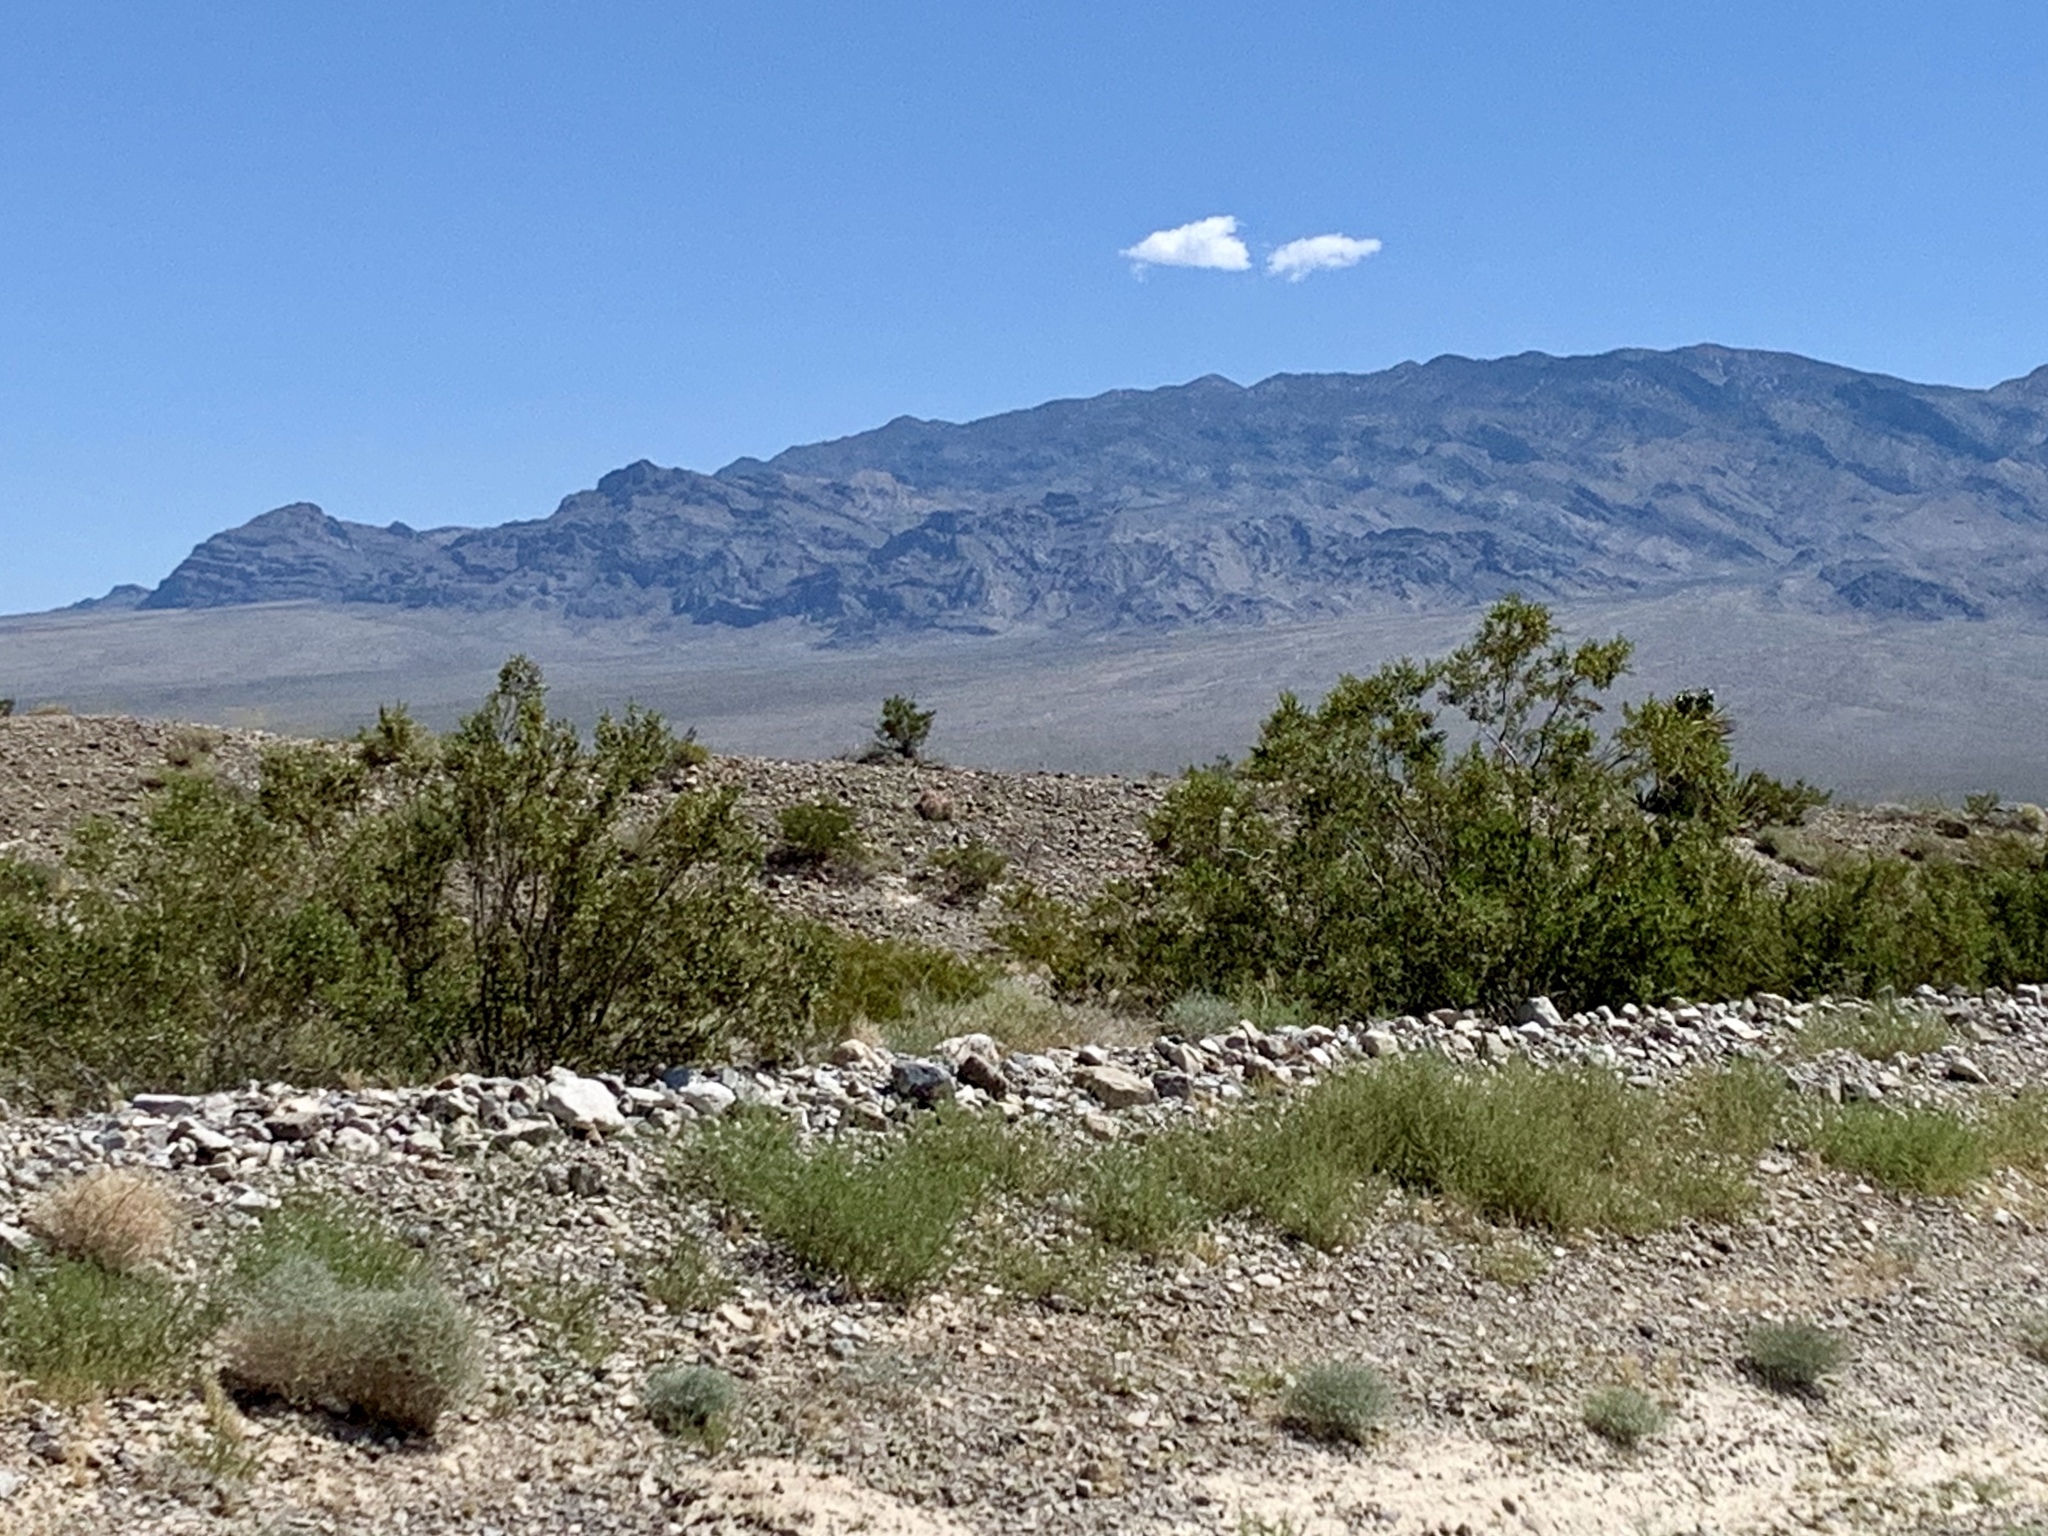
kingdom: Plantae
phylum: Tracheophyta
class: Magnoliopsida
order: Zygophyllales
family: Zygophyllaceae
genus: Larrea
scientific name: Larrea tridentata
